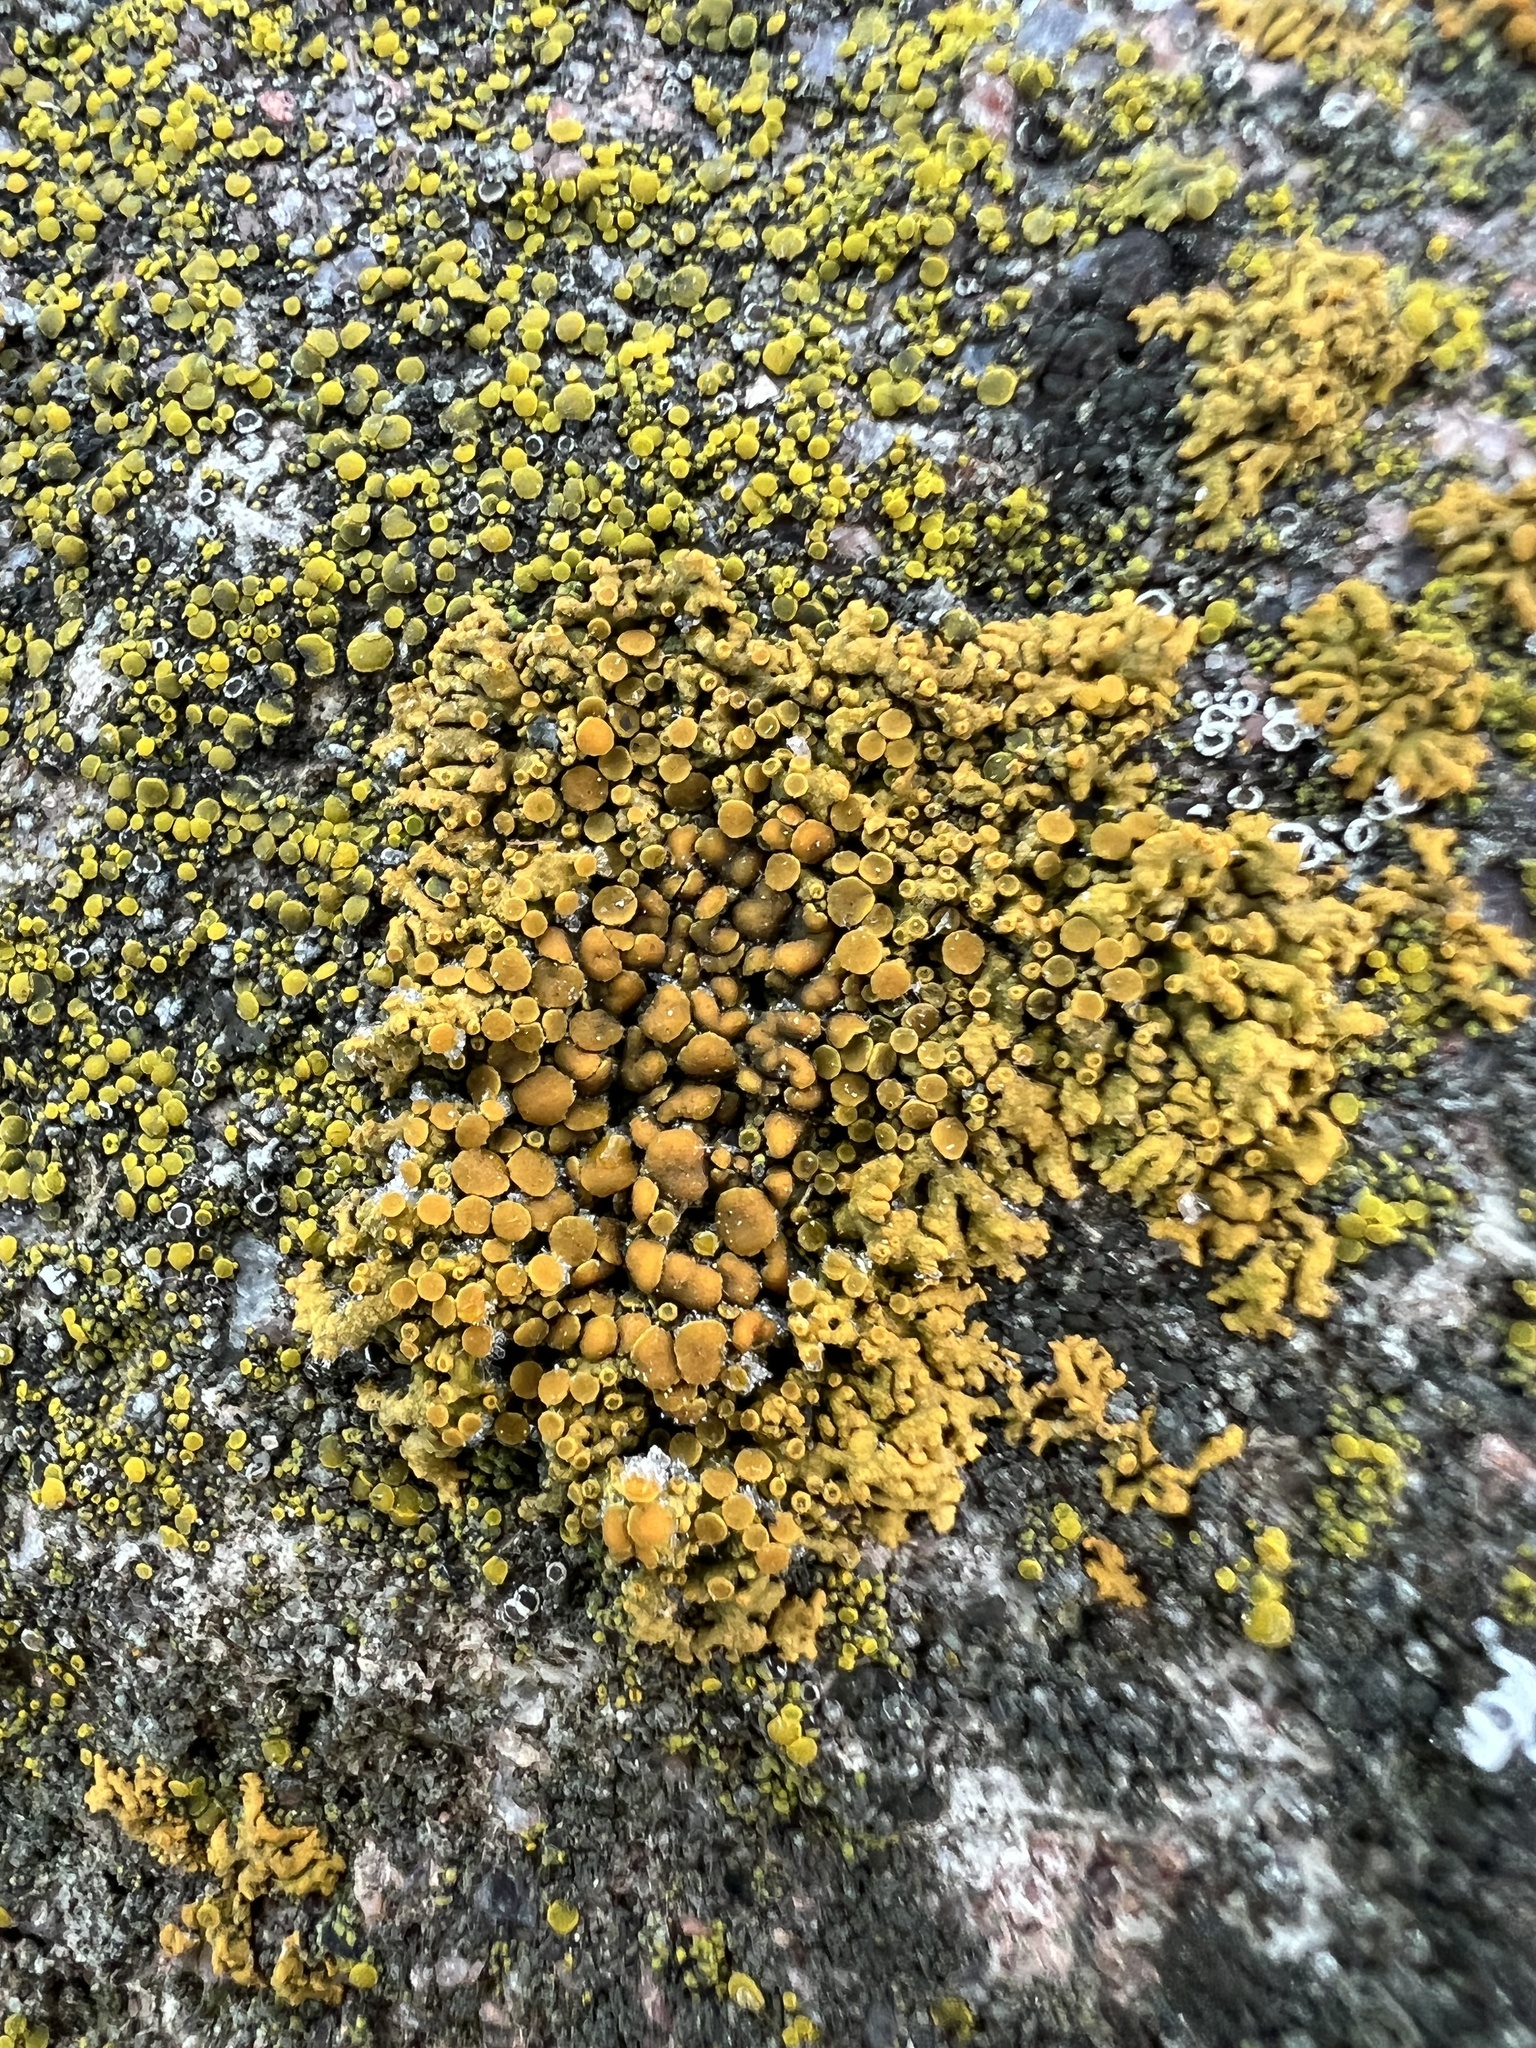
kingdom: Fungi
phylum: Ascomycota
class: Lecanoromycetes
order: Teloschistales
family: Teloschistaceae
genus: Xanthoria
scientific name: Xanthoria elegans
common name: Elegant sunburst lichen
